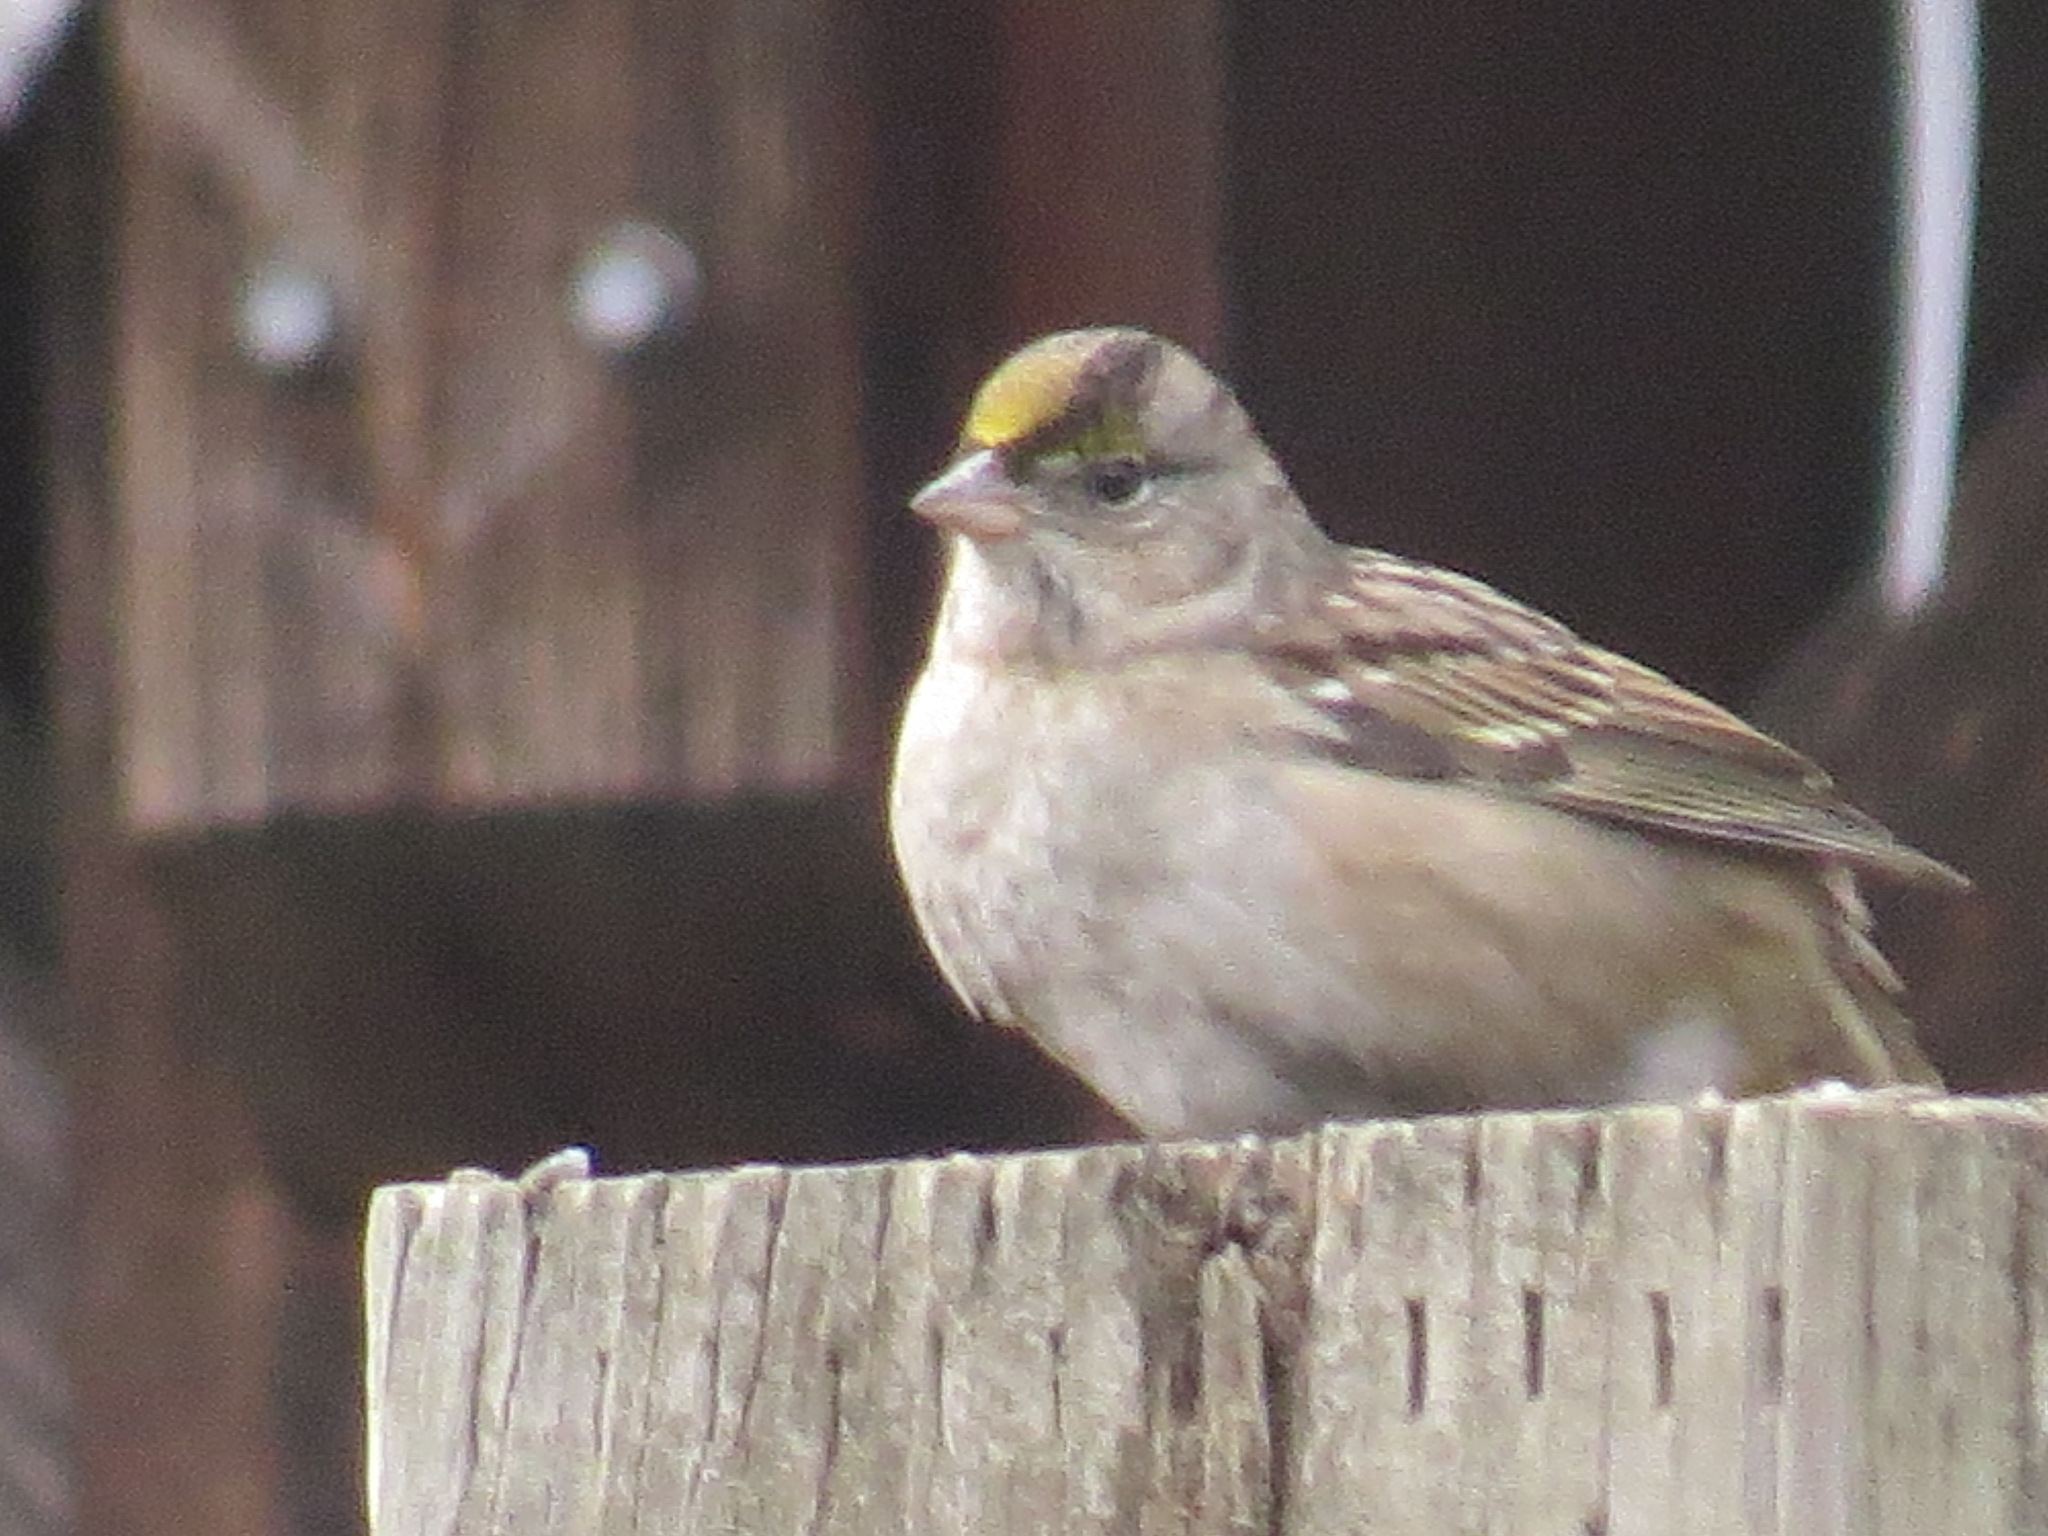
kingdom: Animalia
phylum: Chordata
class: Aves
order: Passeriformes
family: Passerellidae
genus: Zonotrichia
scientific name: Zonotrichia atricapilla
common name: Golden-crowned sparrow
